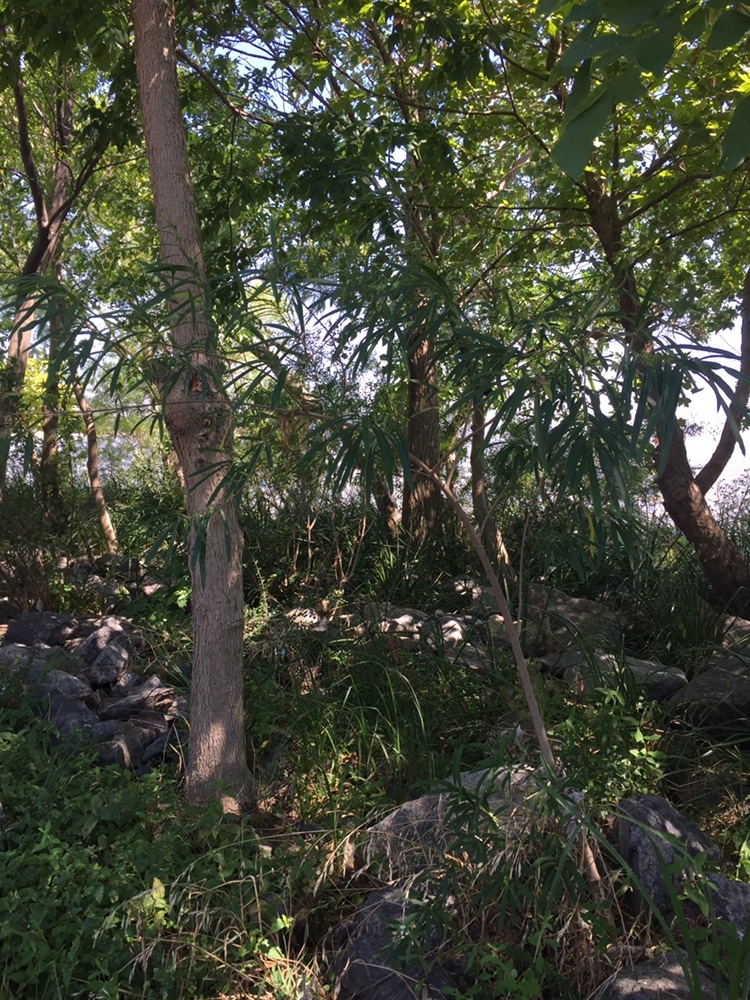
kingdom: Plantae
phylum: Tracheophyta
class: Magnoliopsida
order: Malpighiales
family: Euphorbiaceae
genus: Sapium
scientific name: Sapium haematospermum
